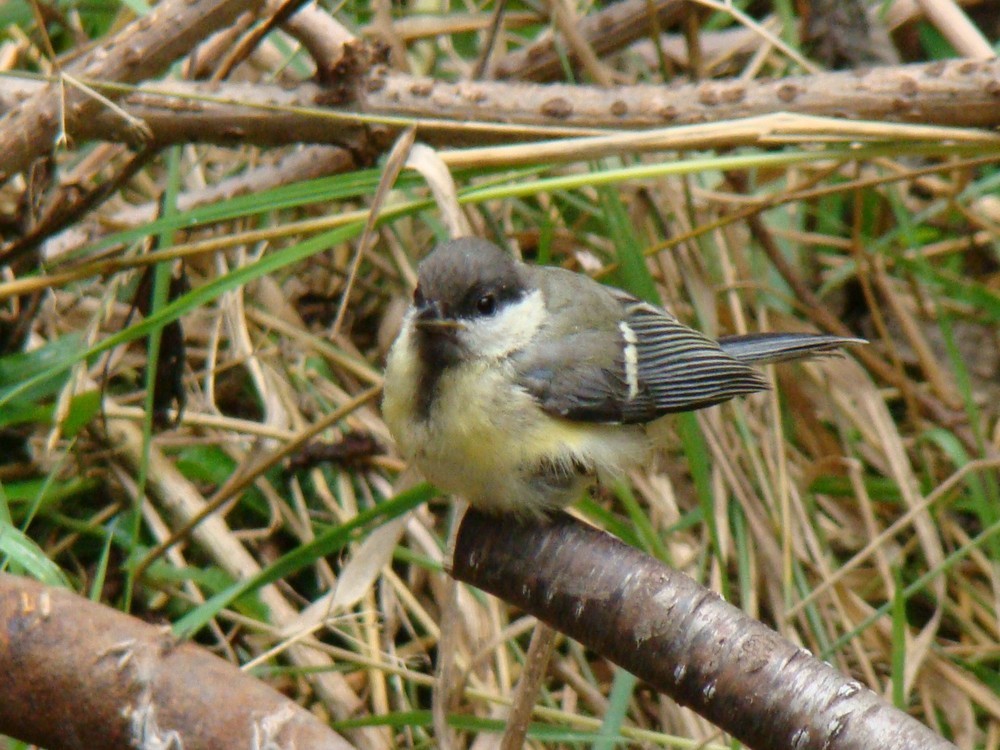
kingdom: Animalia
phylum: Chordata
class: Aves
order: Passeriformes
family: Paridae
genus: Parus
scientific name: Parus major
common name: Great tit
